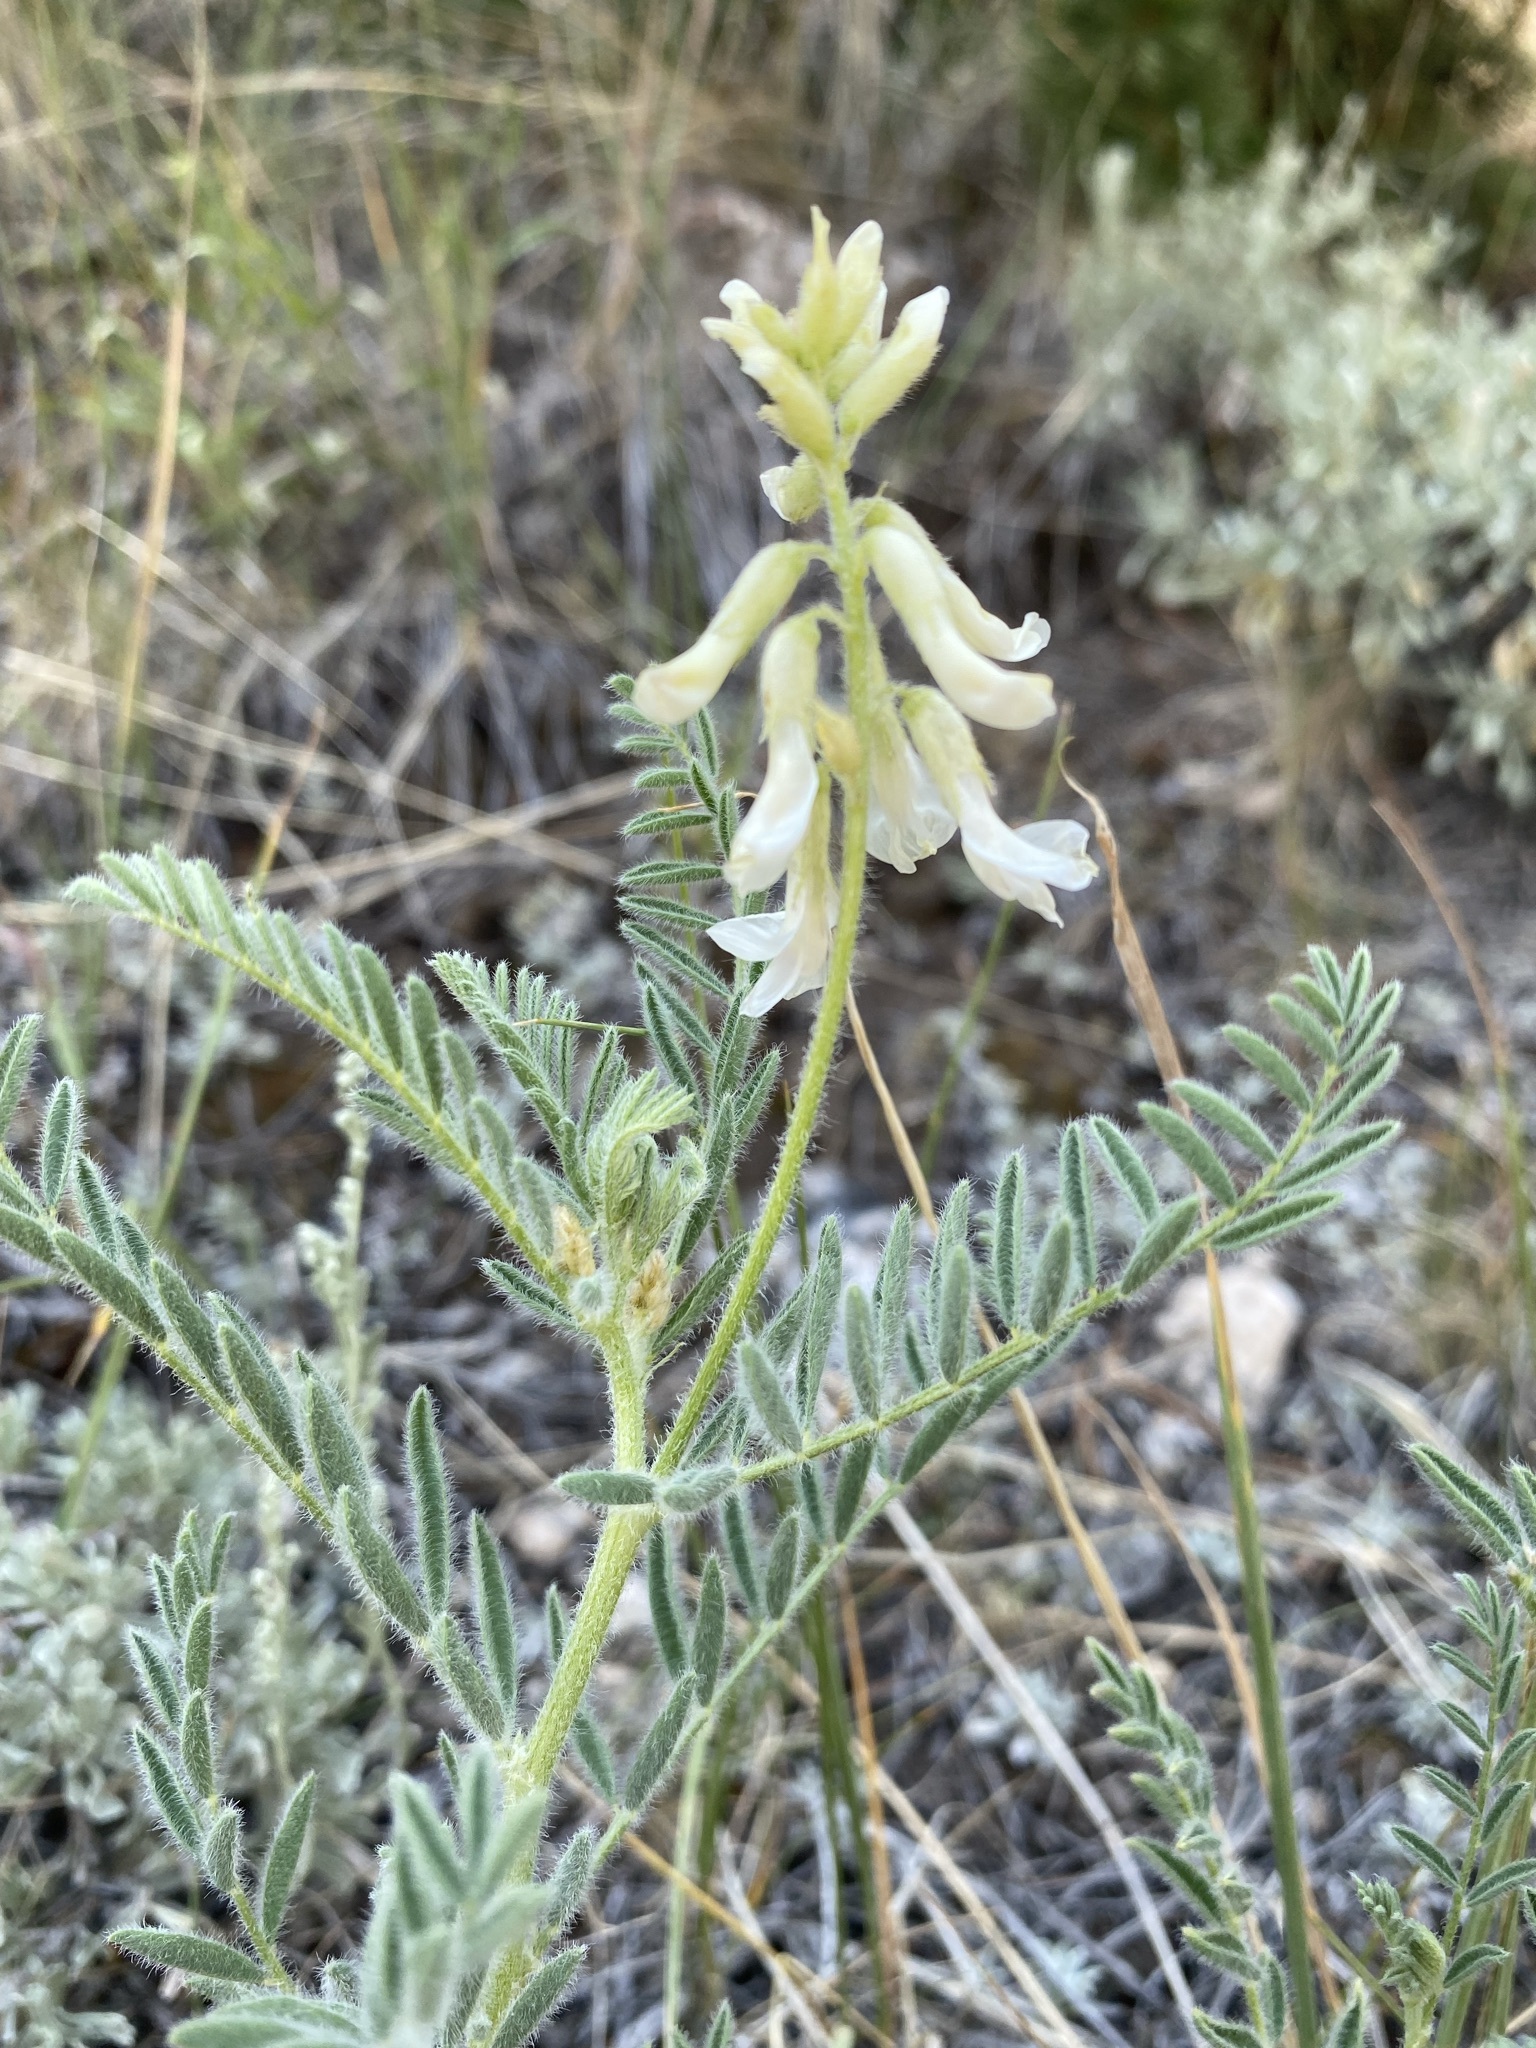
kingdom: Plantae
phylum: Tracheophyta
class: Magnoliopsida
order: Fabales
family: Fabaceae
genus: Astragalus
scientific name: Astragalus drummondii
